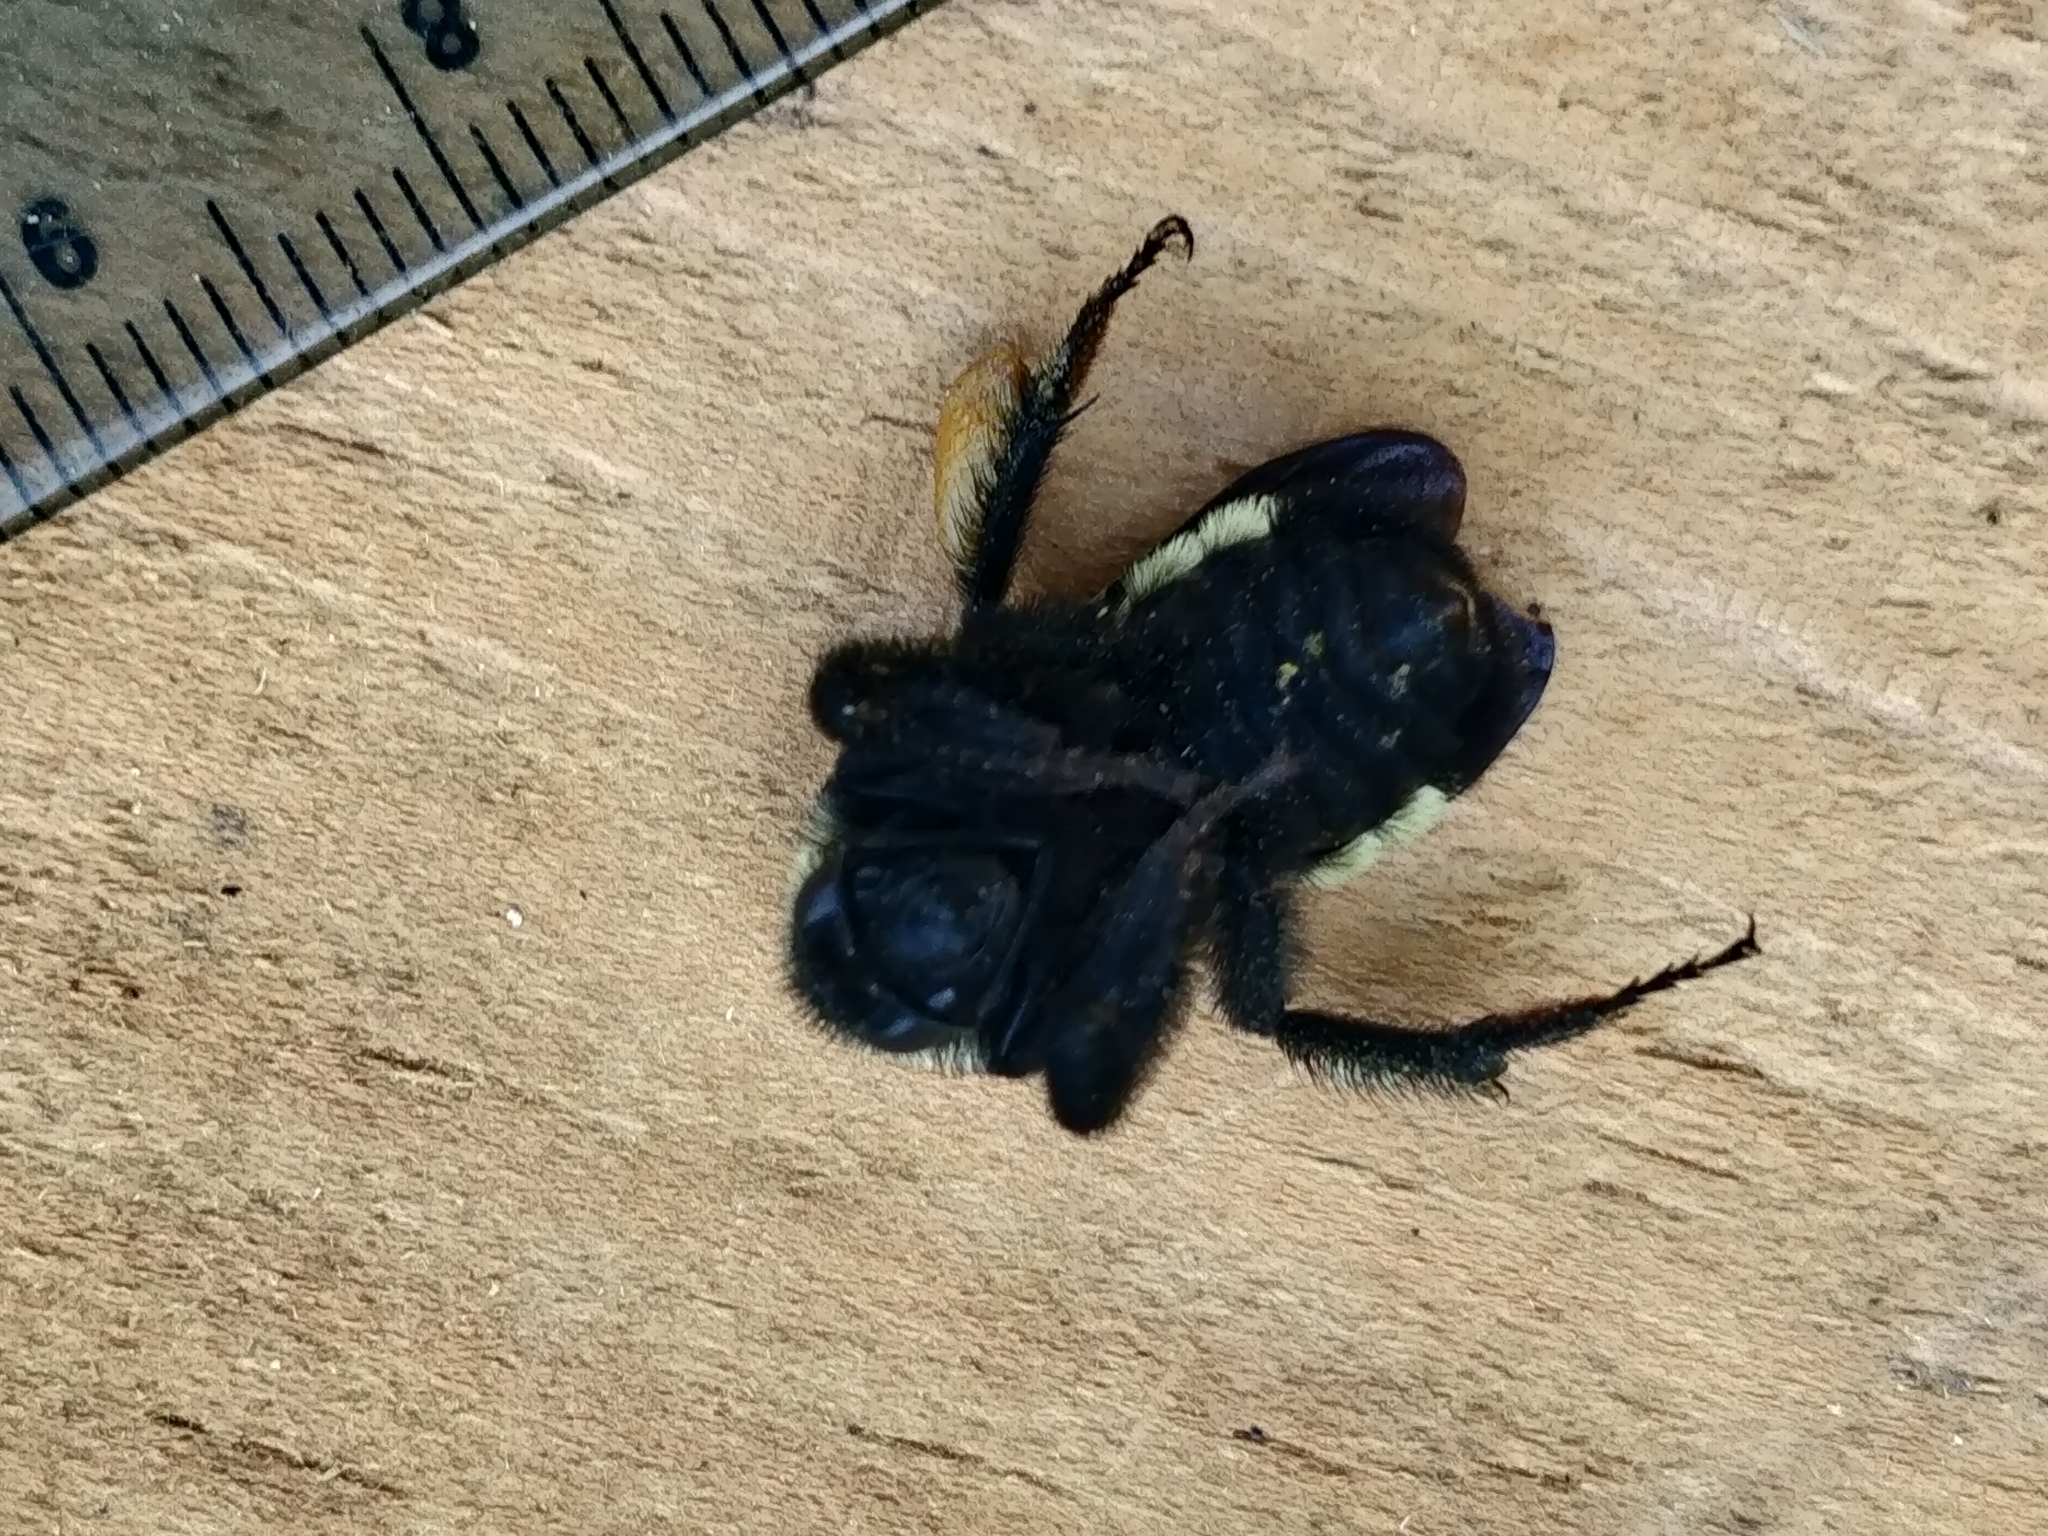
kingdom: Animalia
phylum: Arthropoda
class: Insecta
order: Hymenoptera
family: Apidae
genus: Bombus
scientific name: Bombus pensylvanicus
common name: Bumble bee
